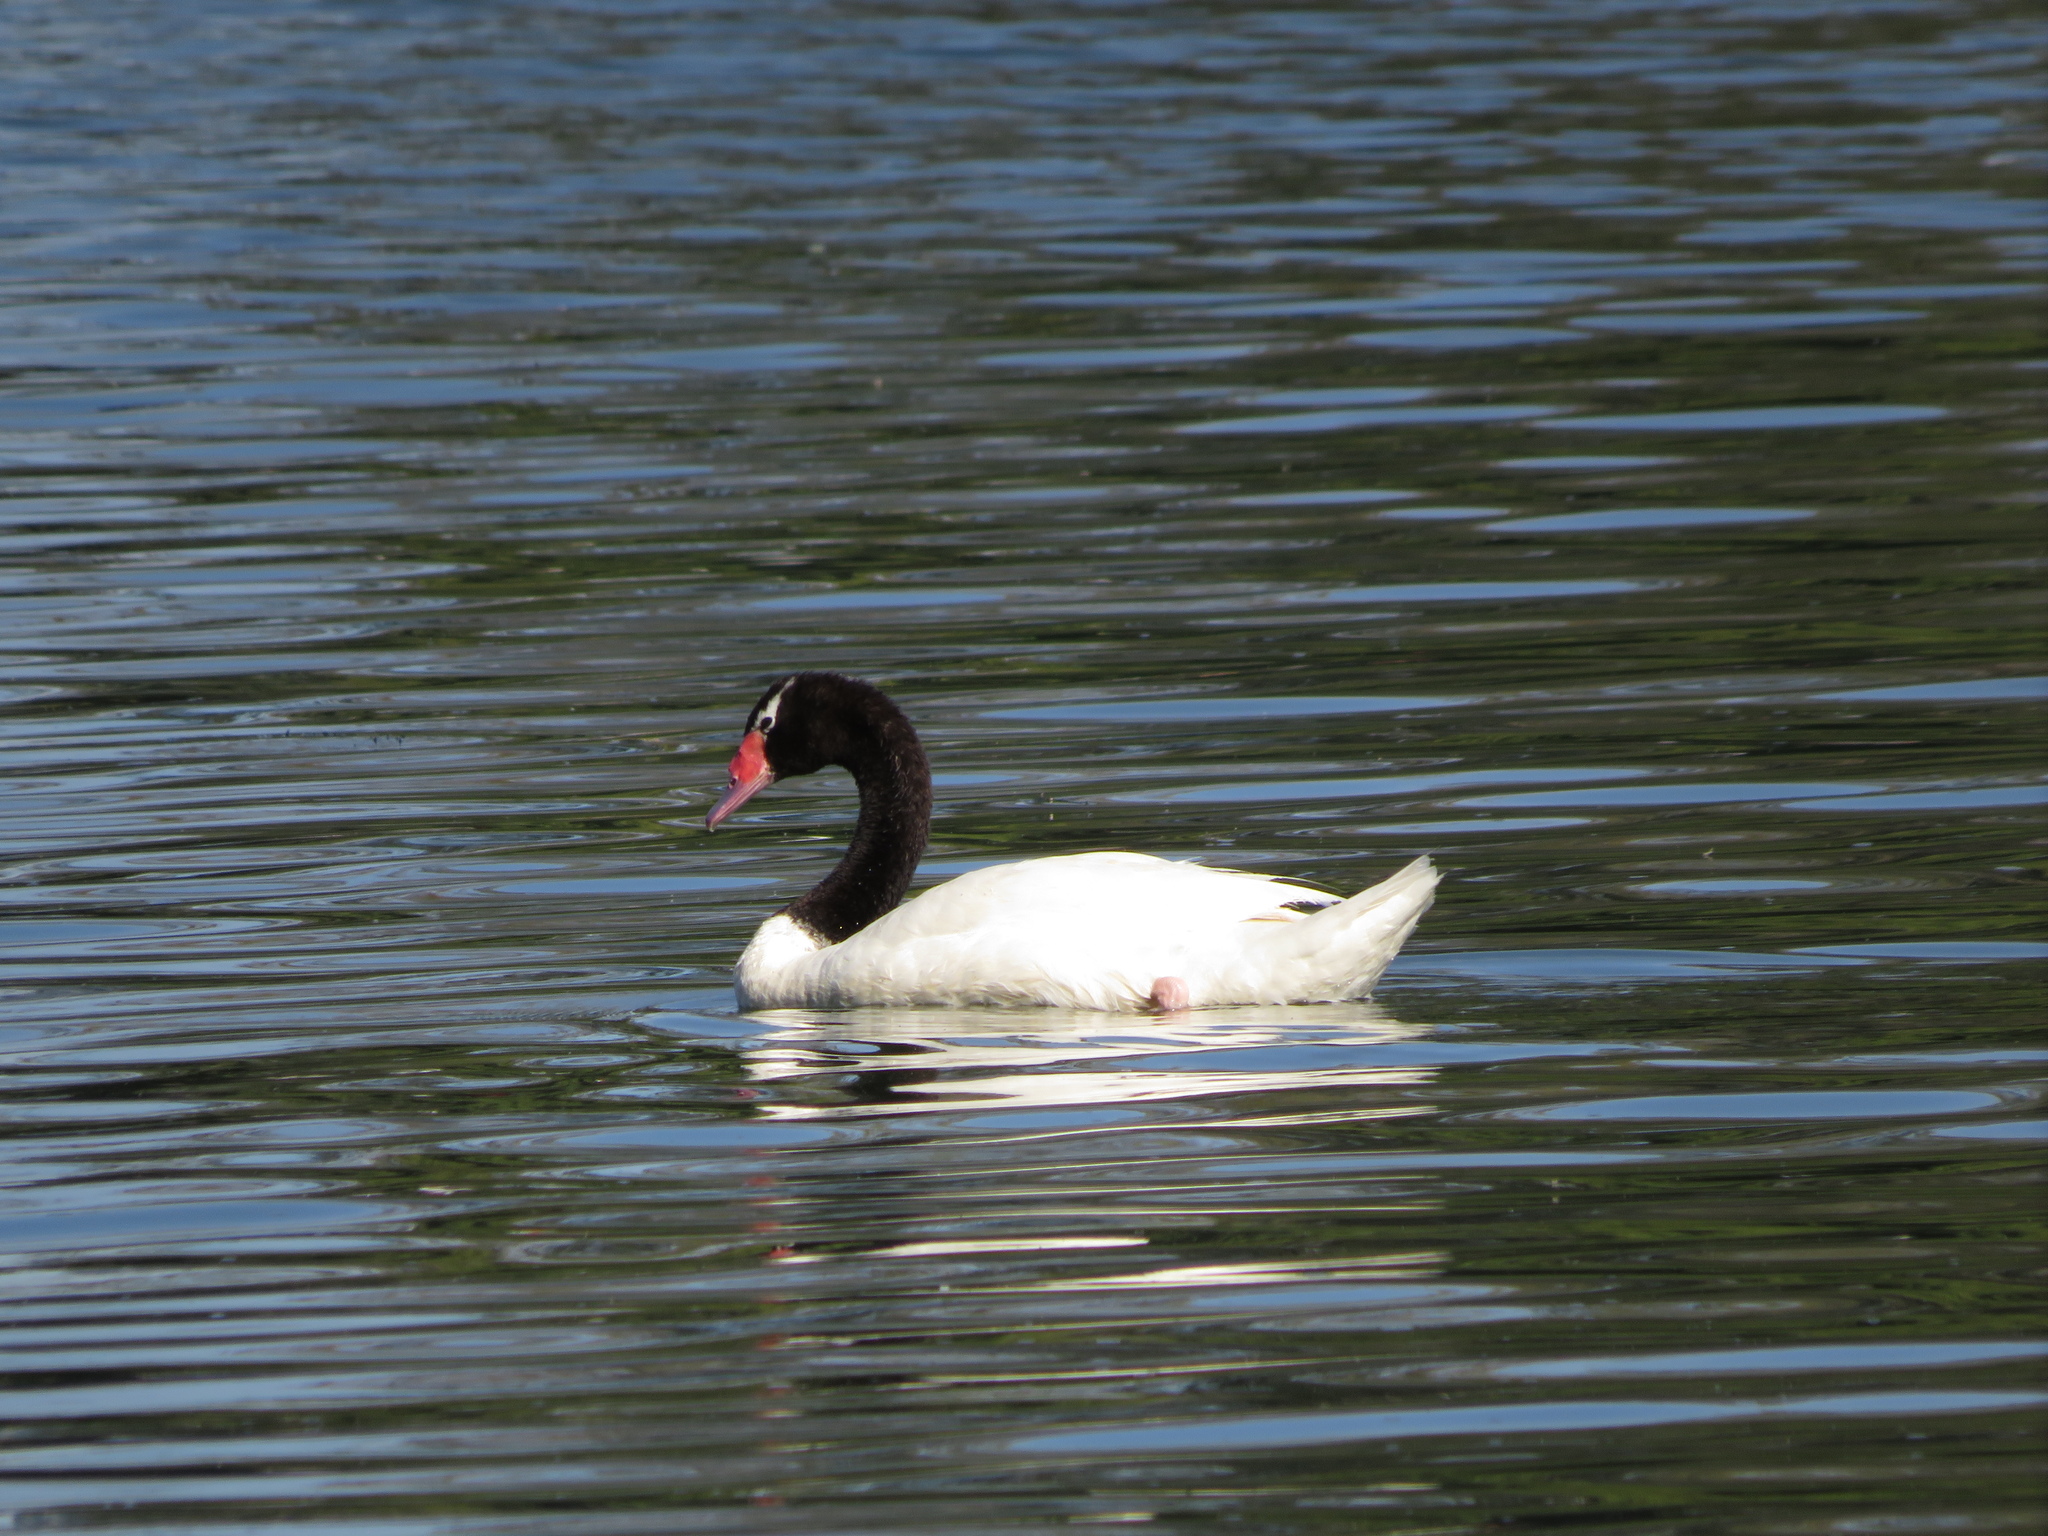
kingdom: Animalia
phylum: Chordata
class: Aves
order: Anseriformes
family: Anatidae
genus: Cygnus
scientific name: Cygnus melancoryphus
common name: Black-necked swan
